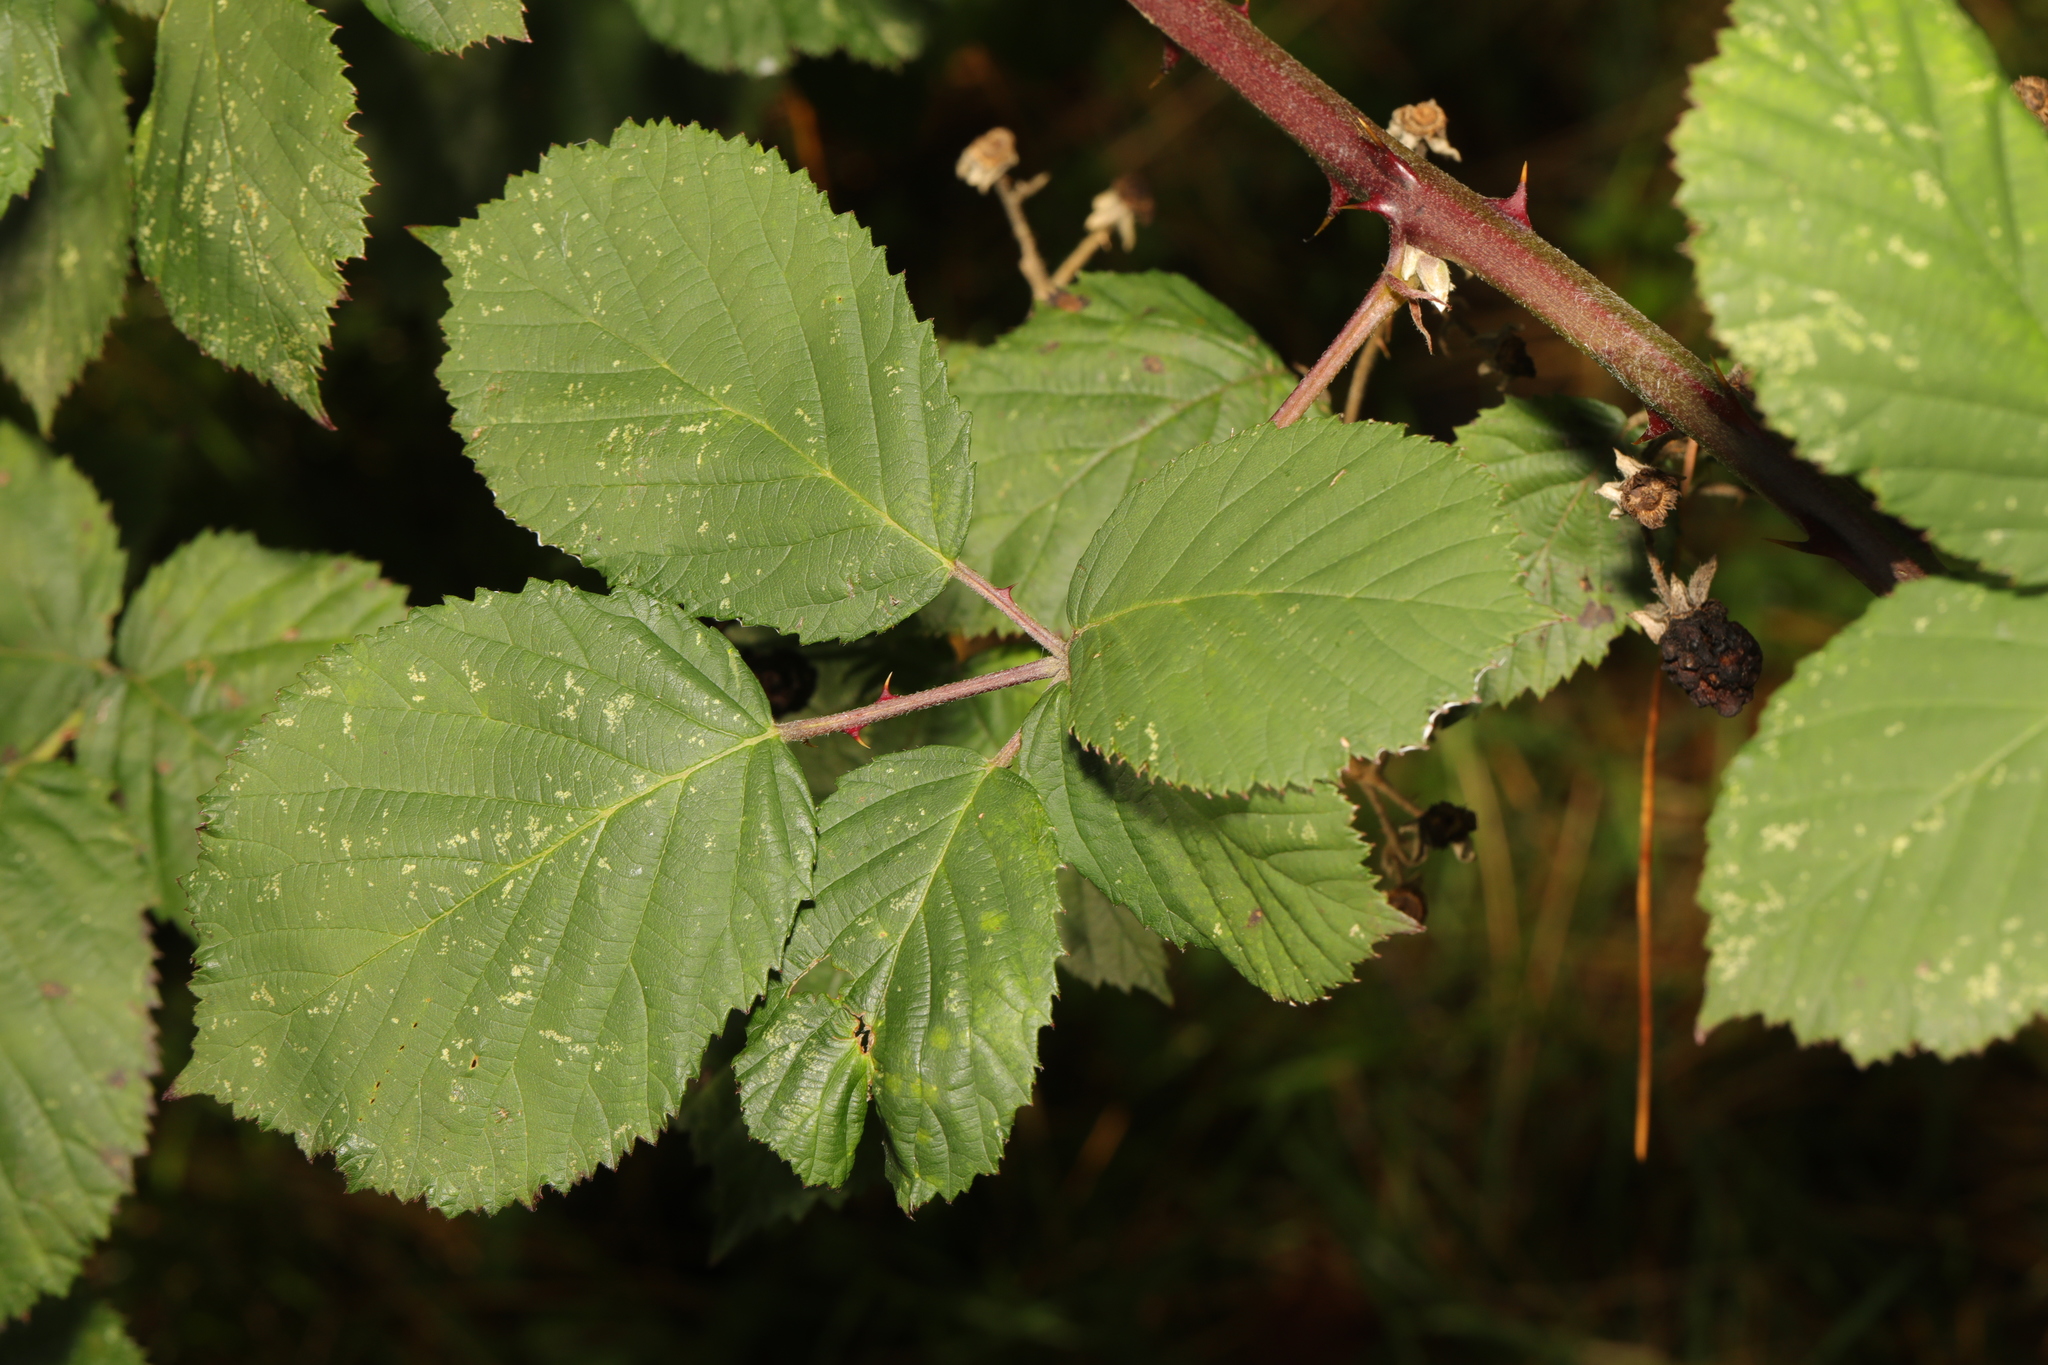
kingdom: Plantae
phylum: Tracheophyta
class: Magnoliopsida
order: Rosales
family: Rosaceae
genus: Rubus
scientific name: Rubus armeniacus
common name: Himalayan blackberry
